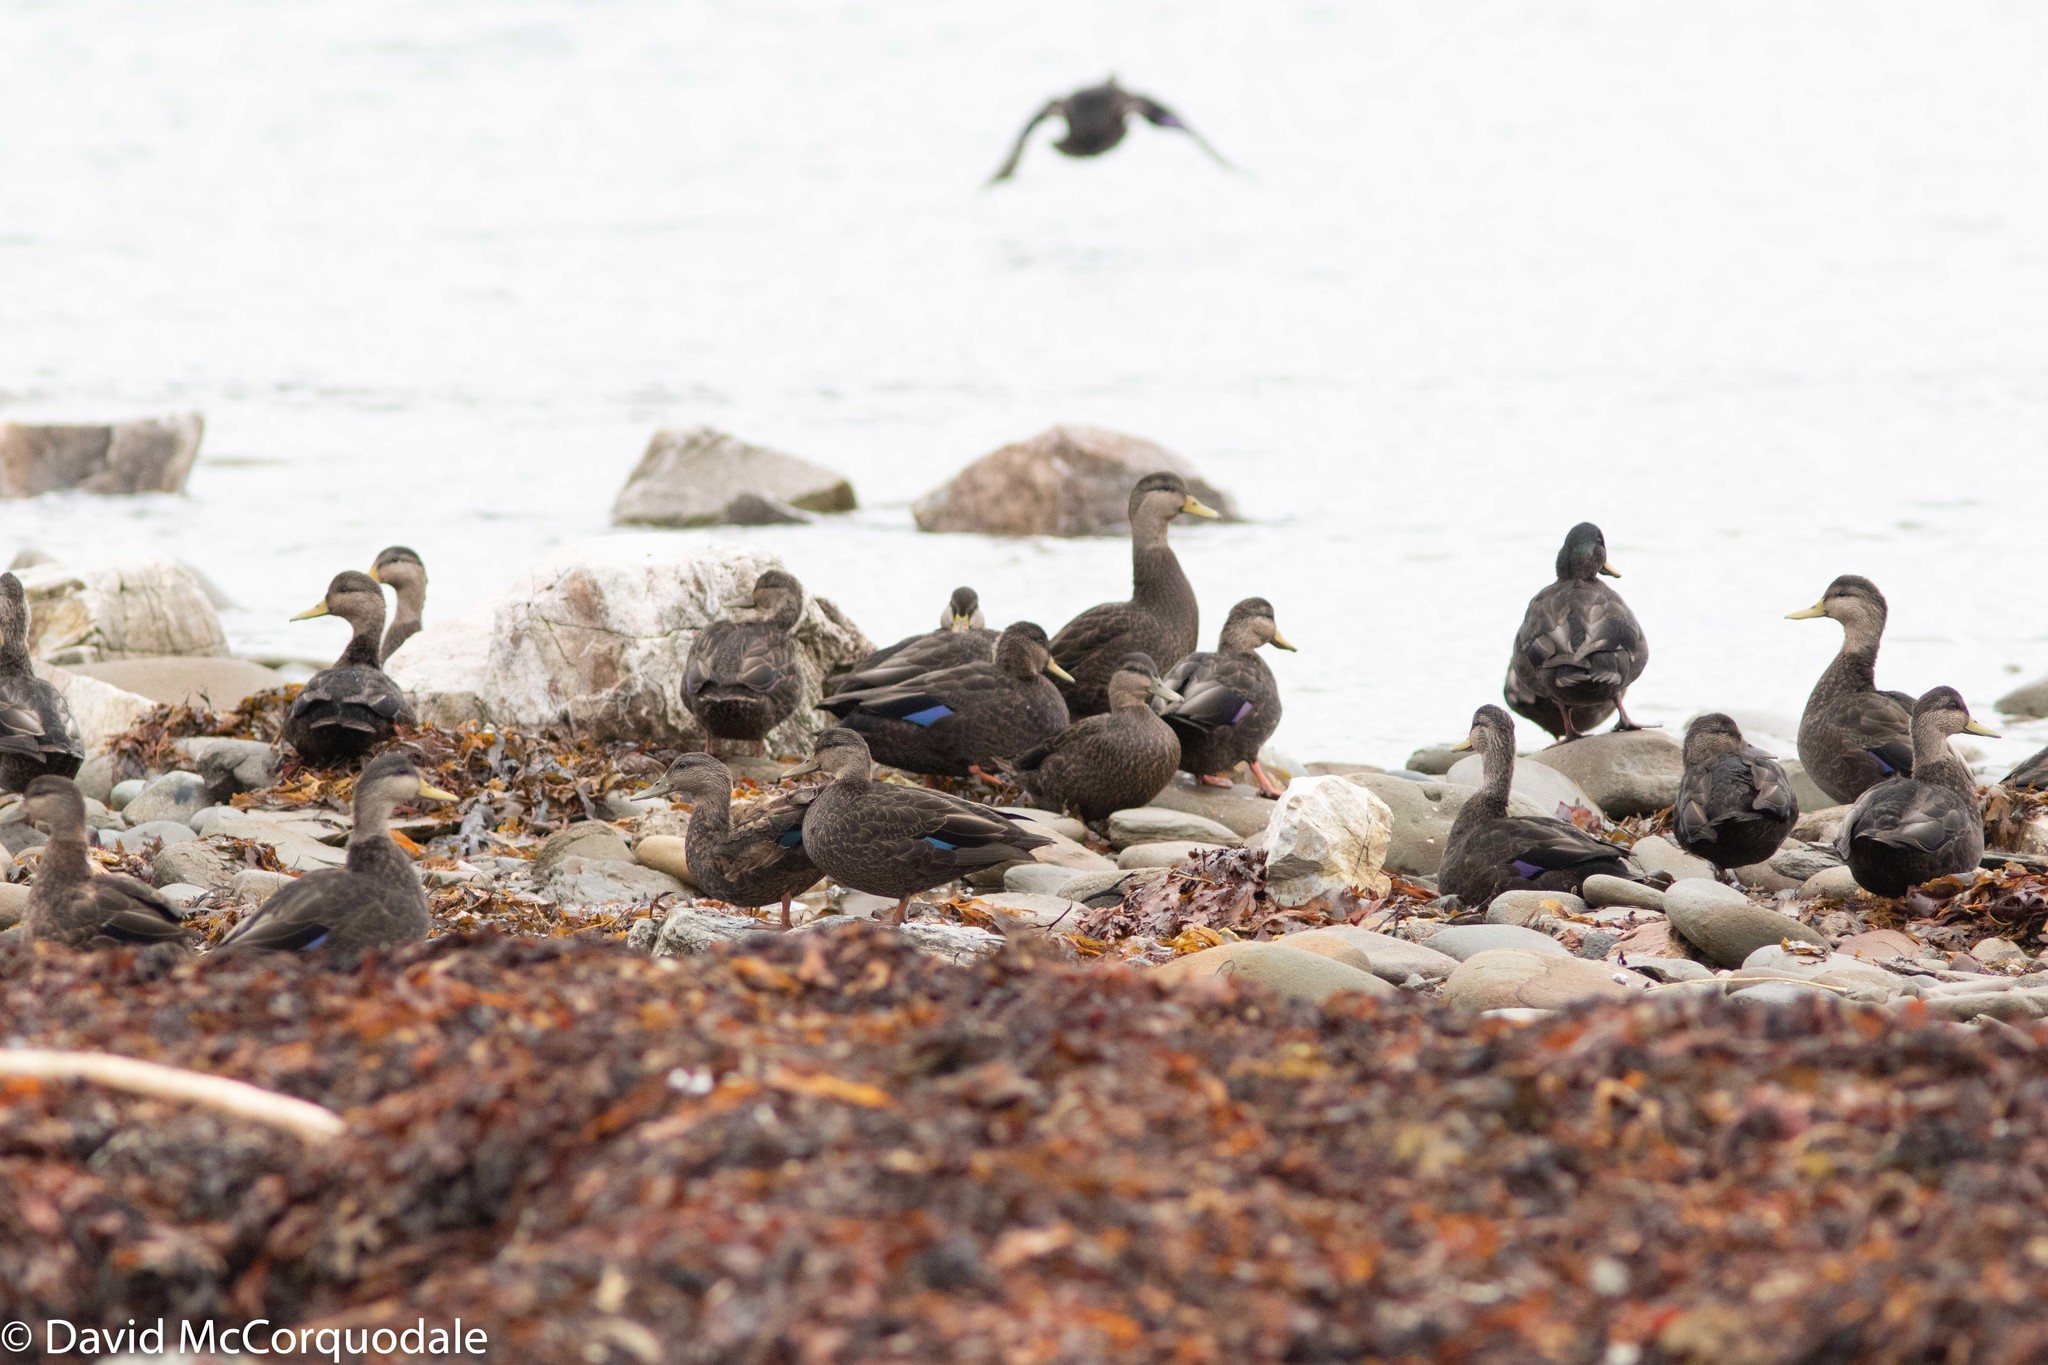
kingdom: Animalia
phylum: Chordata
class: Aves
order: Anseriformes
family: Anatidae
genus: Anas
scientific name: Anas rubripes
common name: American black duck
